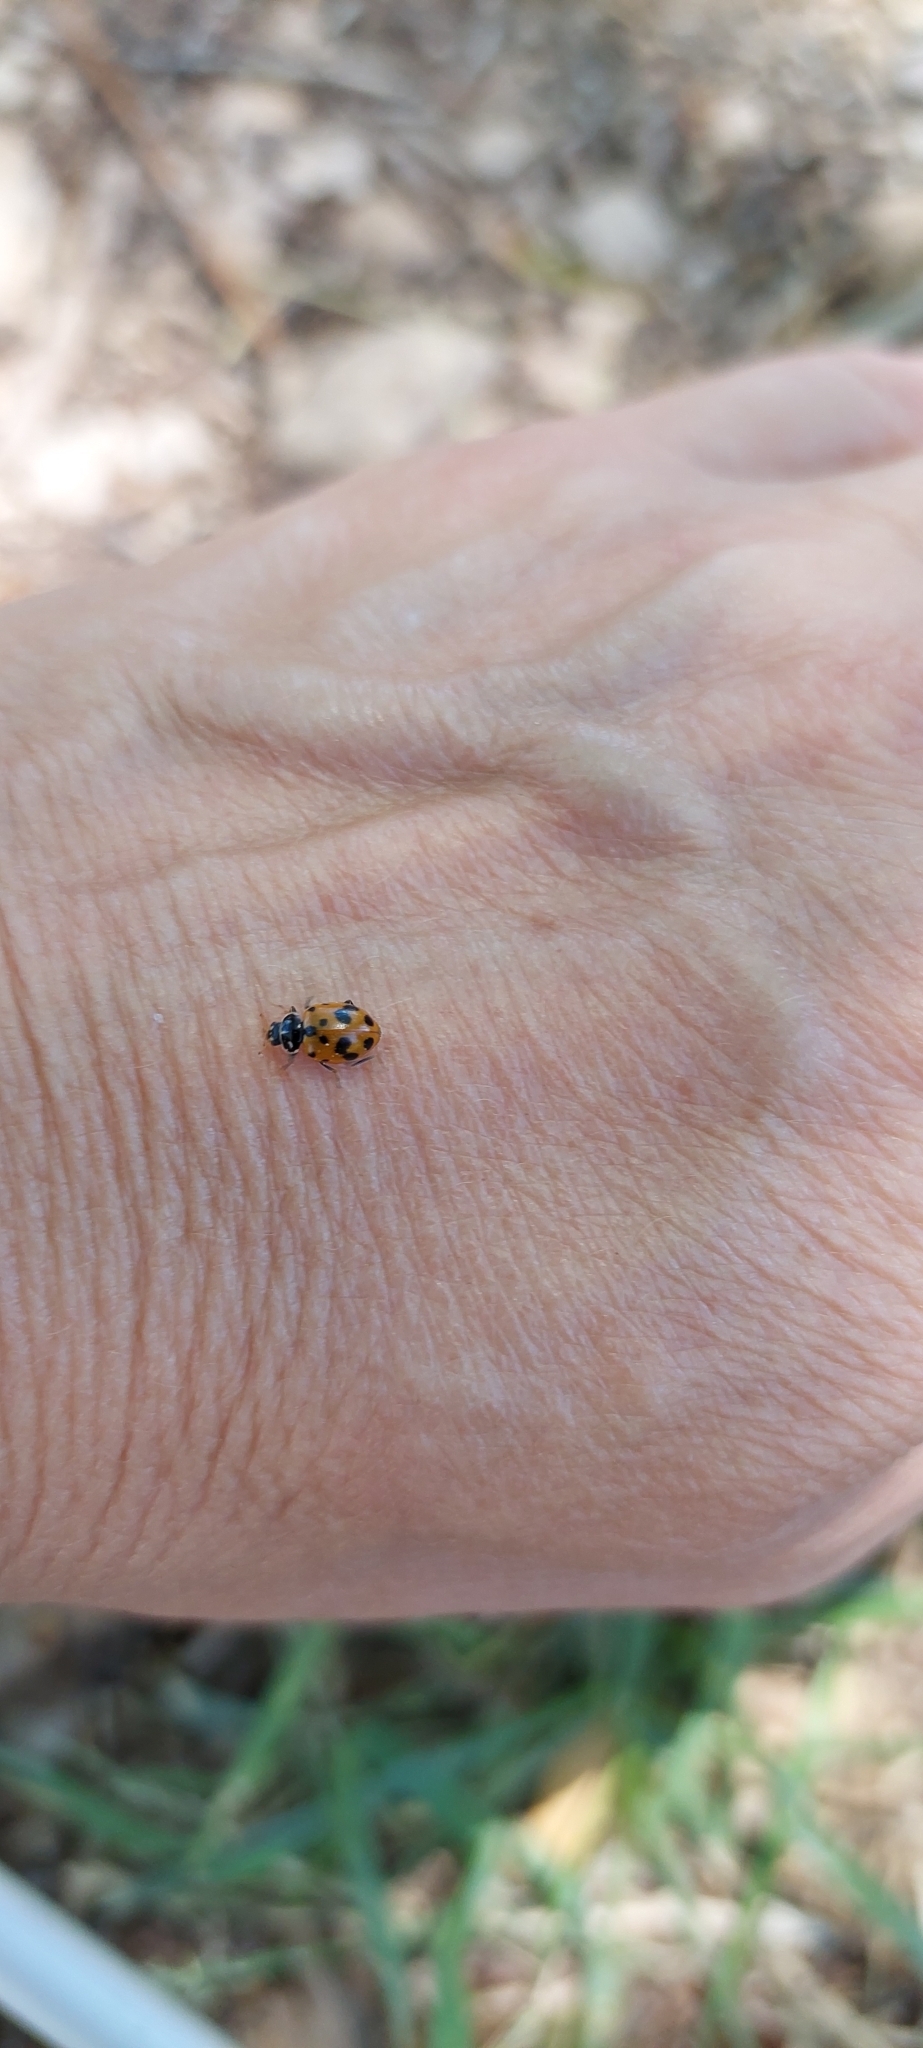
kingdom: Animalia
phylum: Arthropoda
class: Insecta
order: Coleoptera
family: Coccinellidae
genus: Hippodamia
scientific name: Hippodamia variegata
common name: Ladybird beetle
